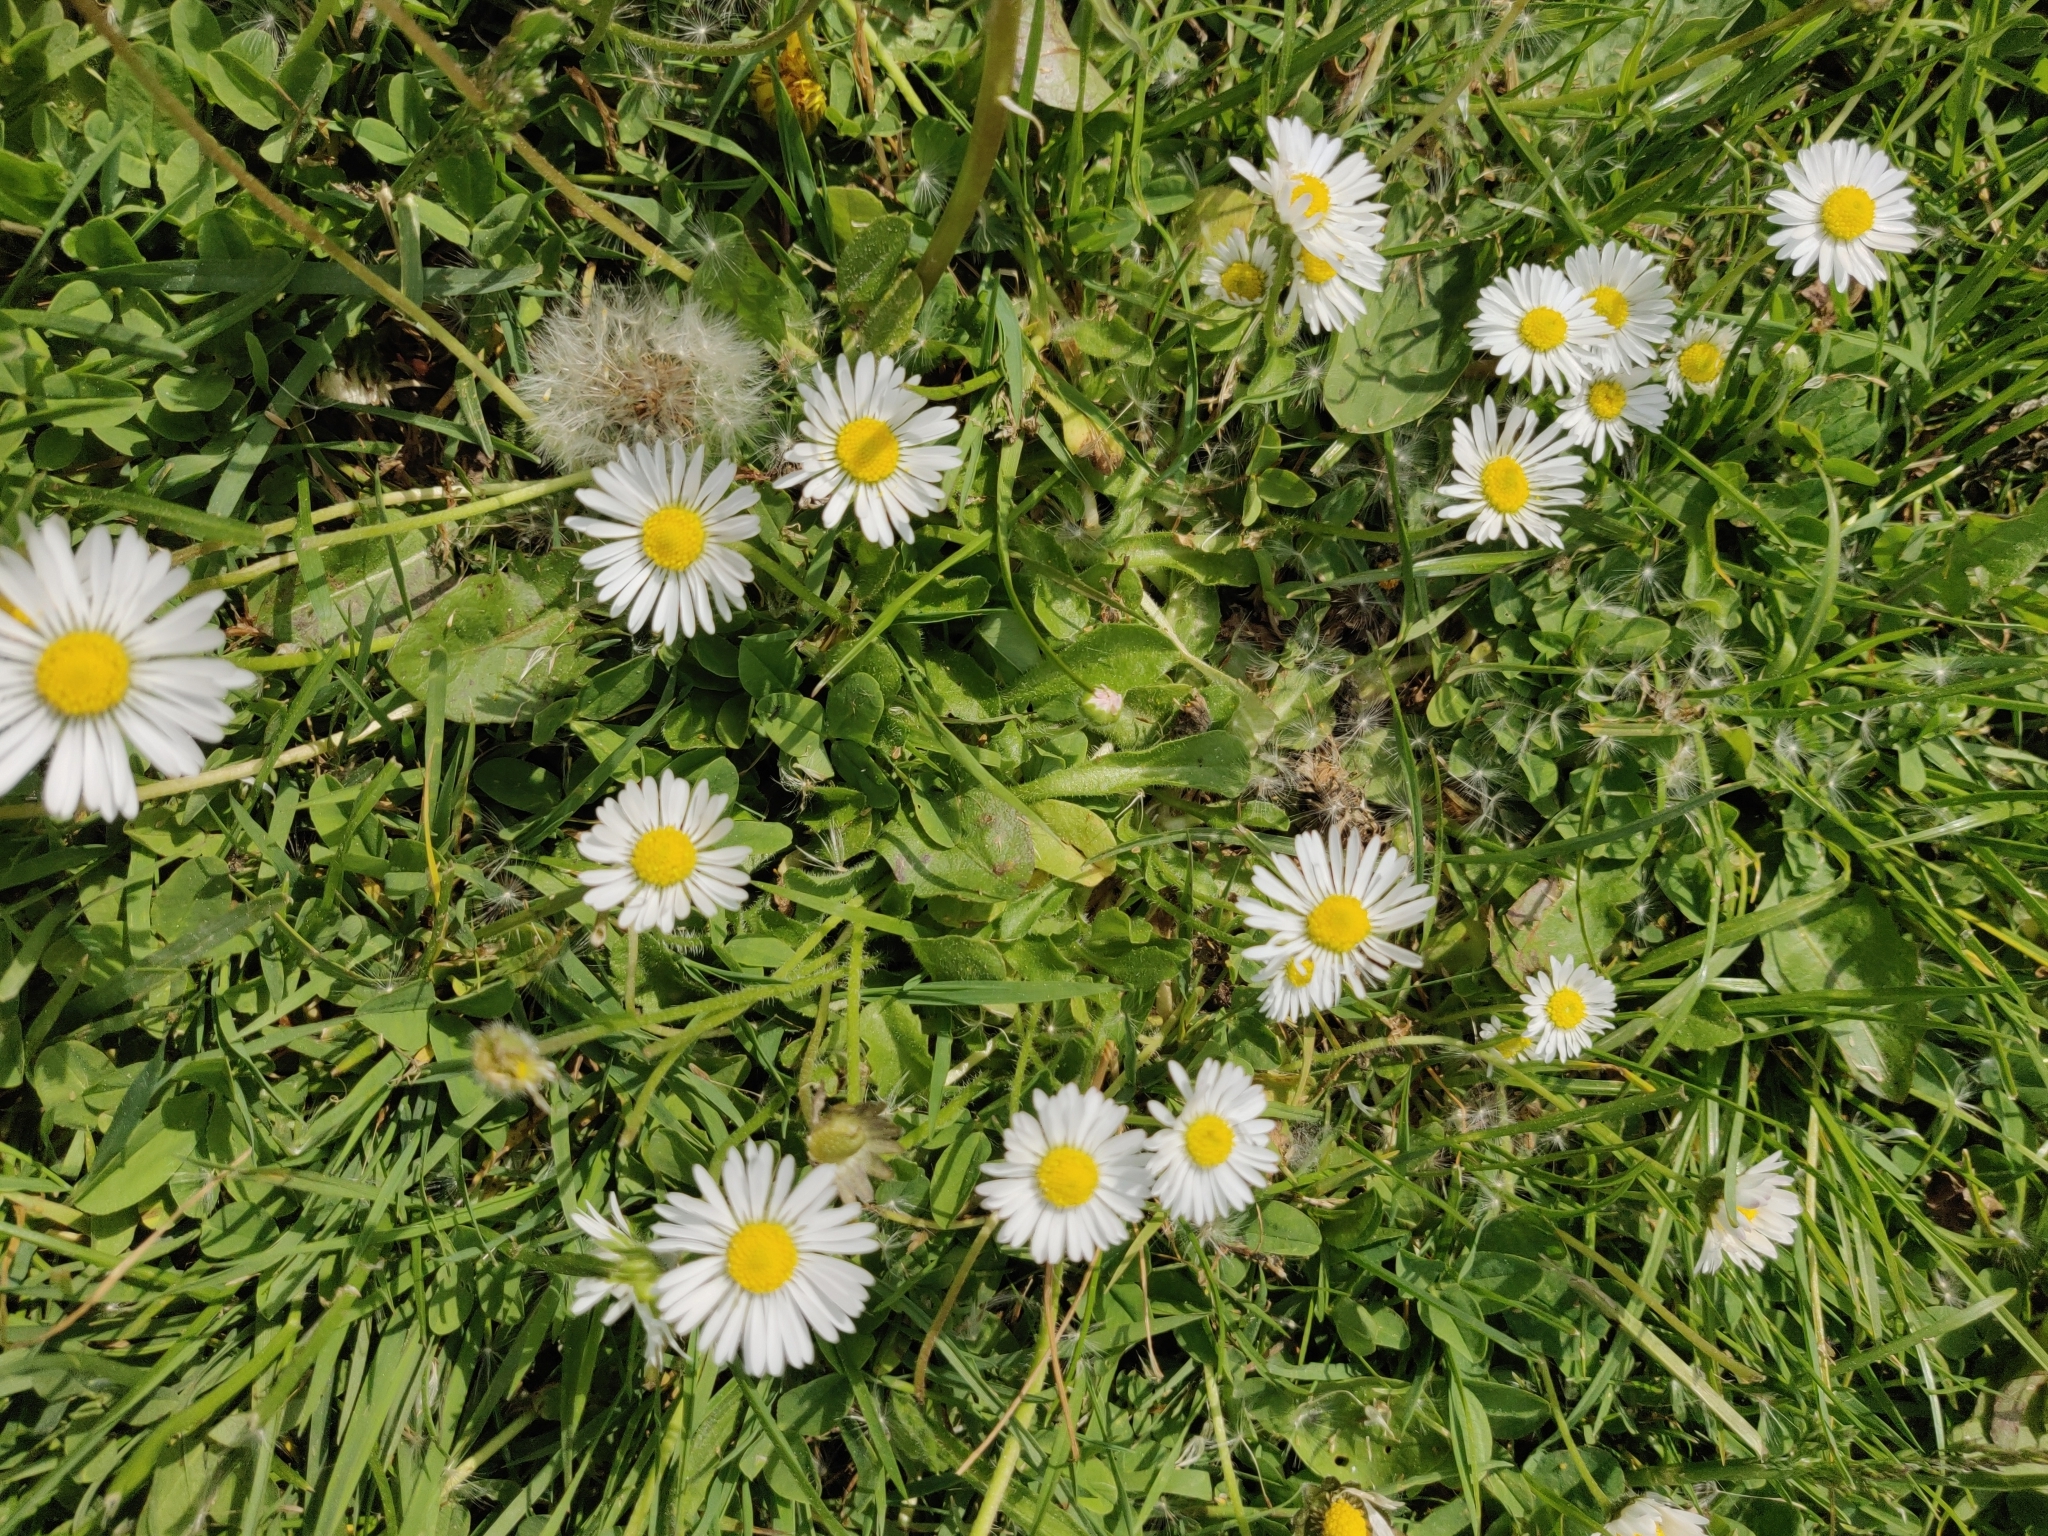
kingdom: Plantae
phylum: Tracheophyta
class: Magnoliopsida
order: Asterales
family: Asteraceae
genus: Bellis
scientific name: Bellis perennis
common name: Lawndaisy
